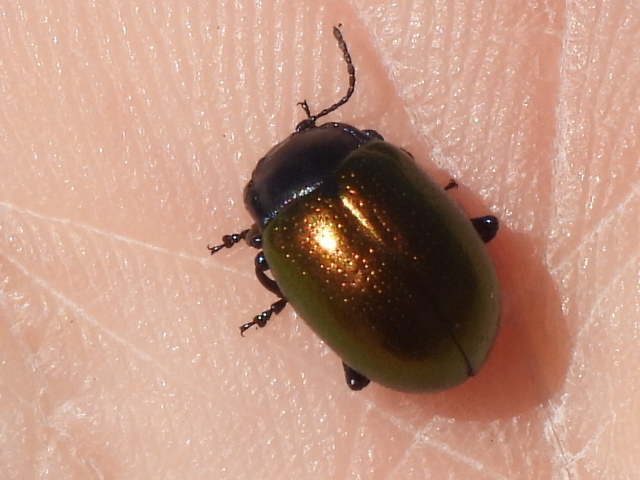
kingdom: Animalia
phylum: Arthropoda
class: Insecta
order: Coleoptera
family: Chrysomelidae
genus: Chrysolina
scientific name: Chrysolina auripennis
